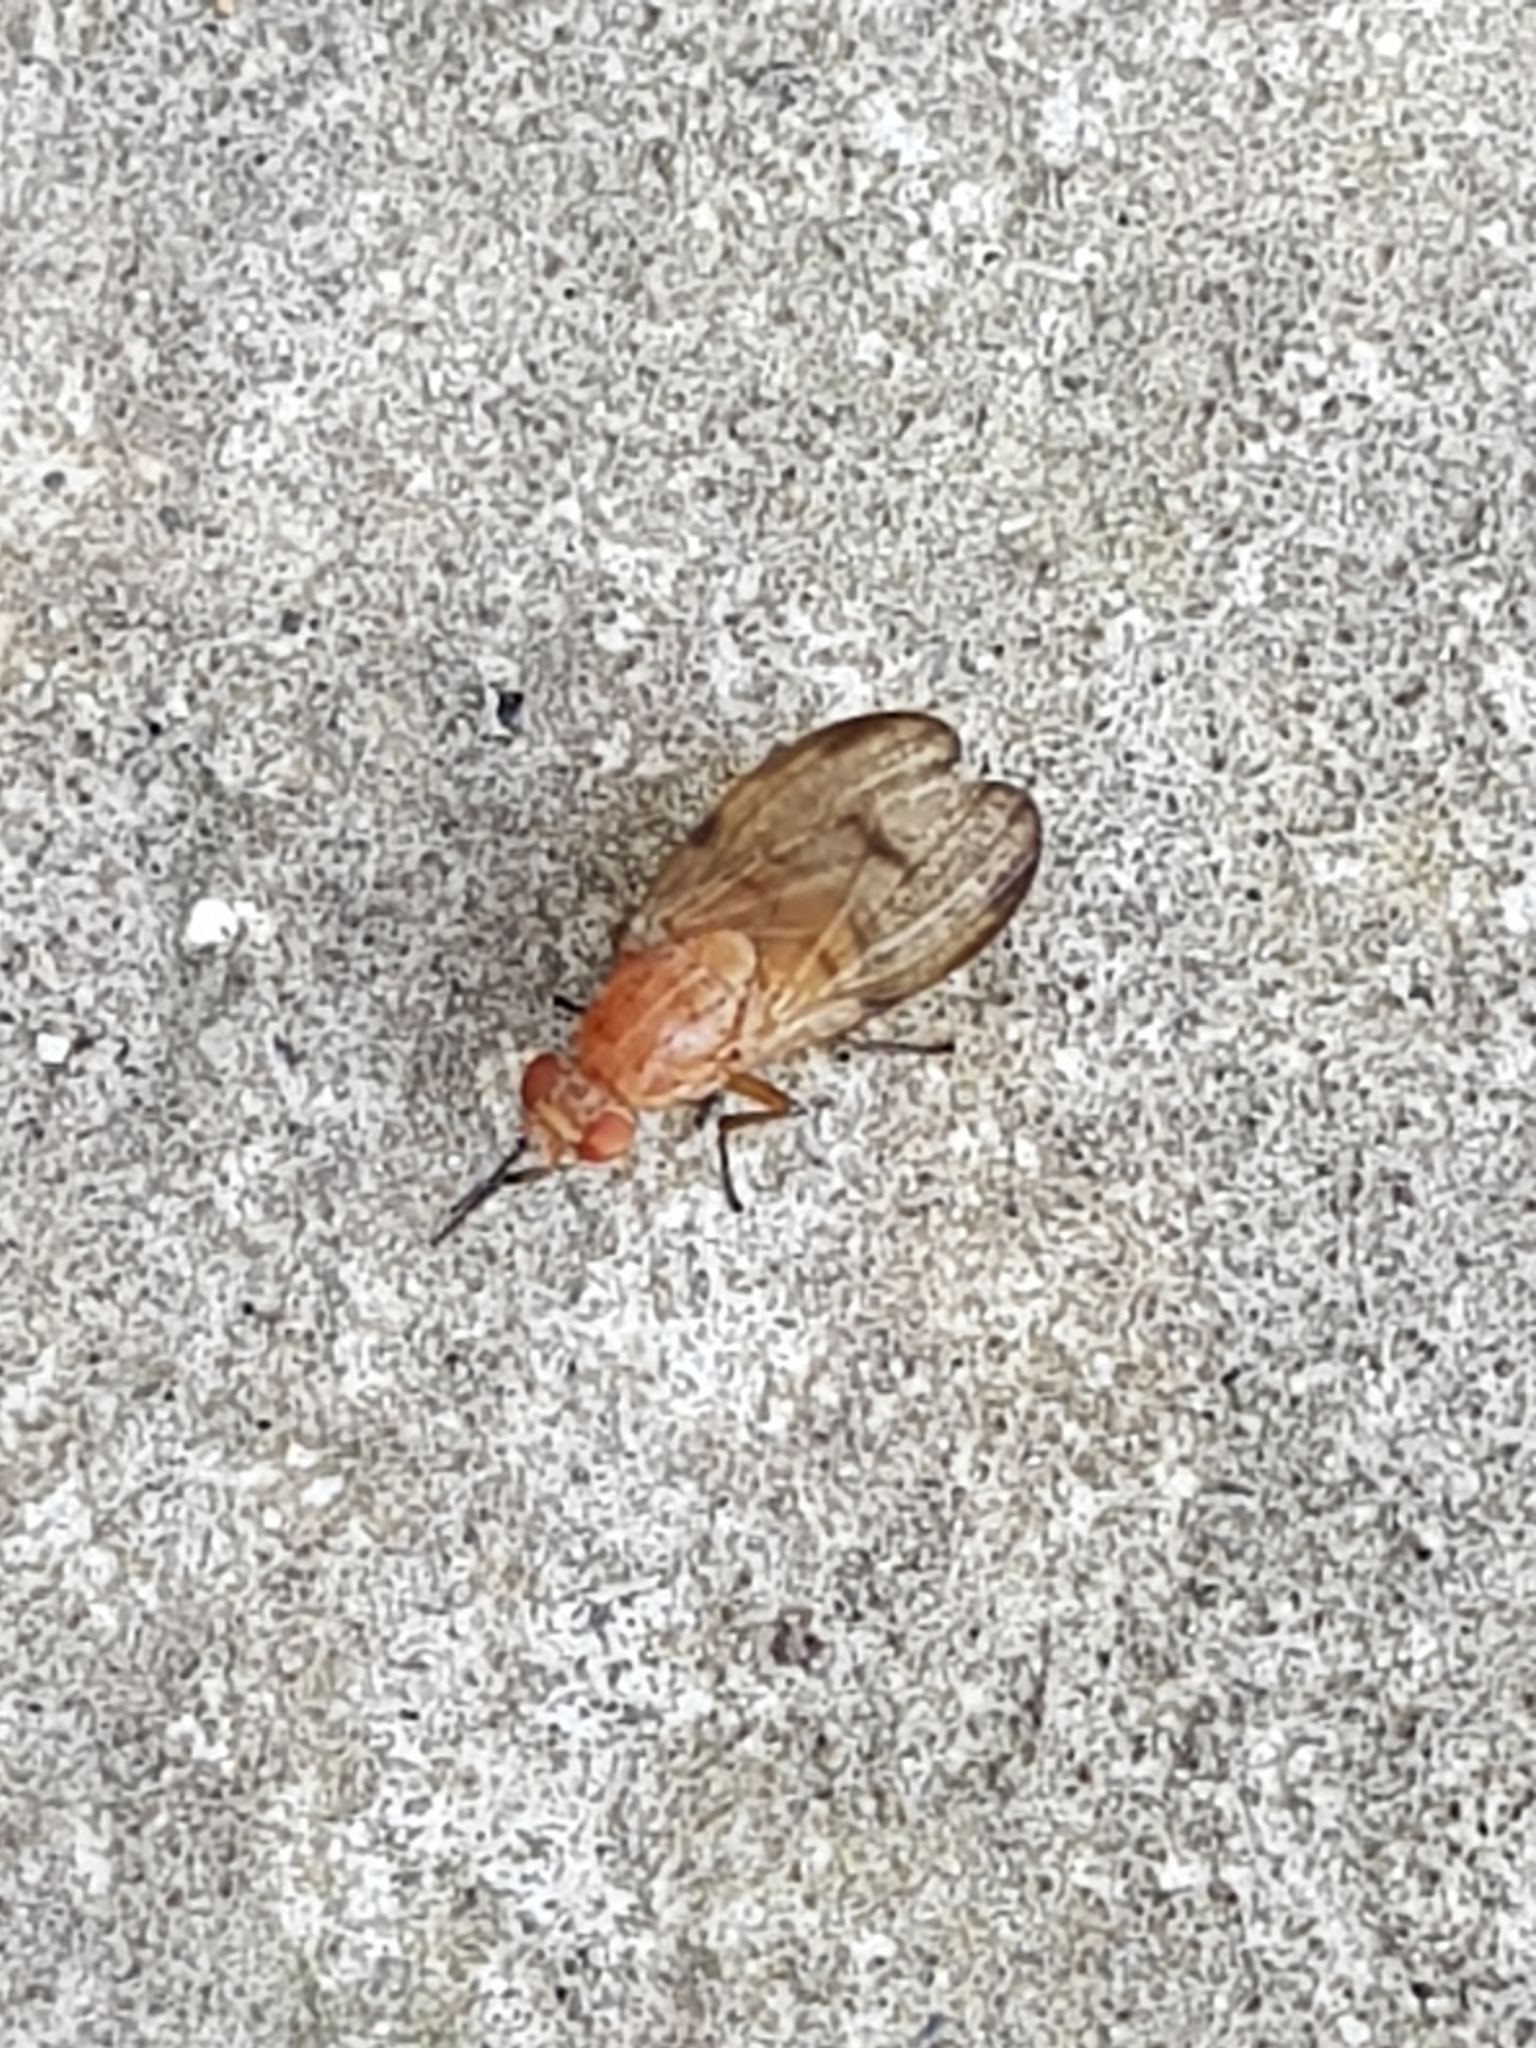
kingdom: Animalia
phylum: Arthropoda
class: Insecta
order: Diptera
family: Lauxaniidae
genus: Minettia
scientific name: Minettia inusta
